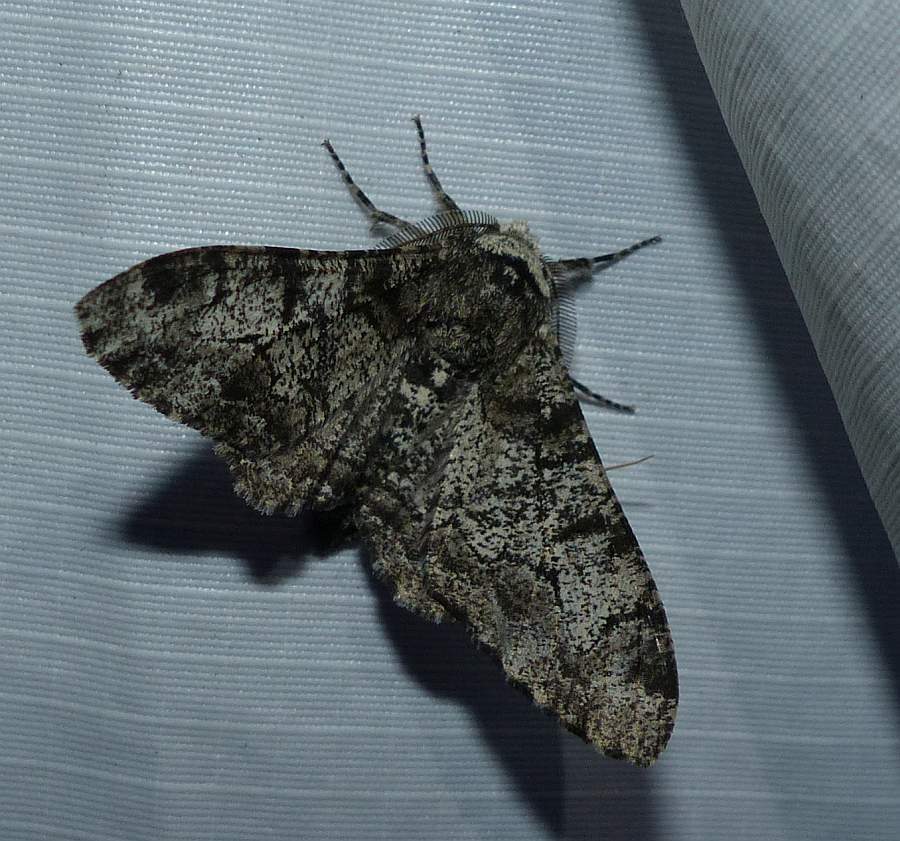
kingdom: Animalia
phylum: Arthropoda
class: Insecta
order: Lepidoptera
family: Geometridae
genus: Biston
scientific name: Biston betularia
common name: Peppered moth
